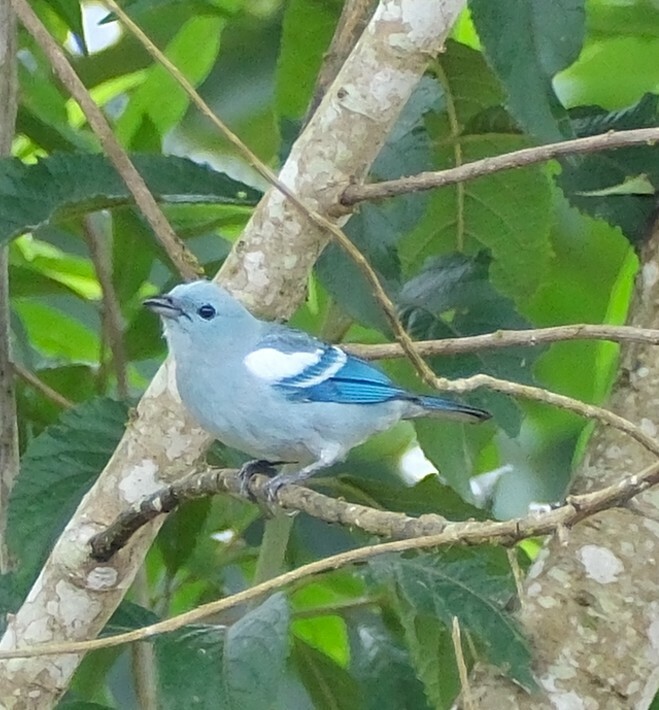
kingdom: Animalia
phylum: Chordata
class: Aves
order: Passeriformes
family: Thraupidae
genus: Thraupis
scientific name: Thraupis episcopus
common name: Blue-grey tanager
